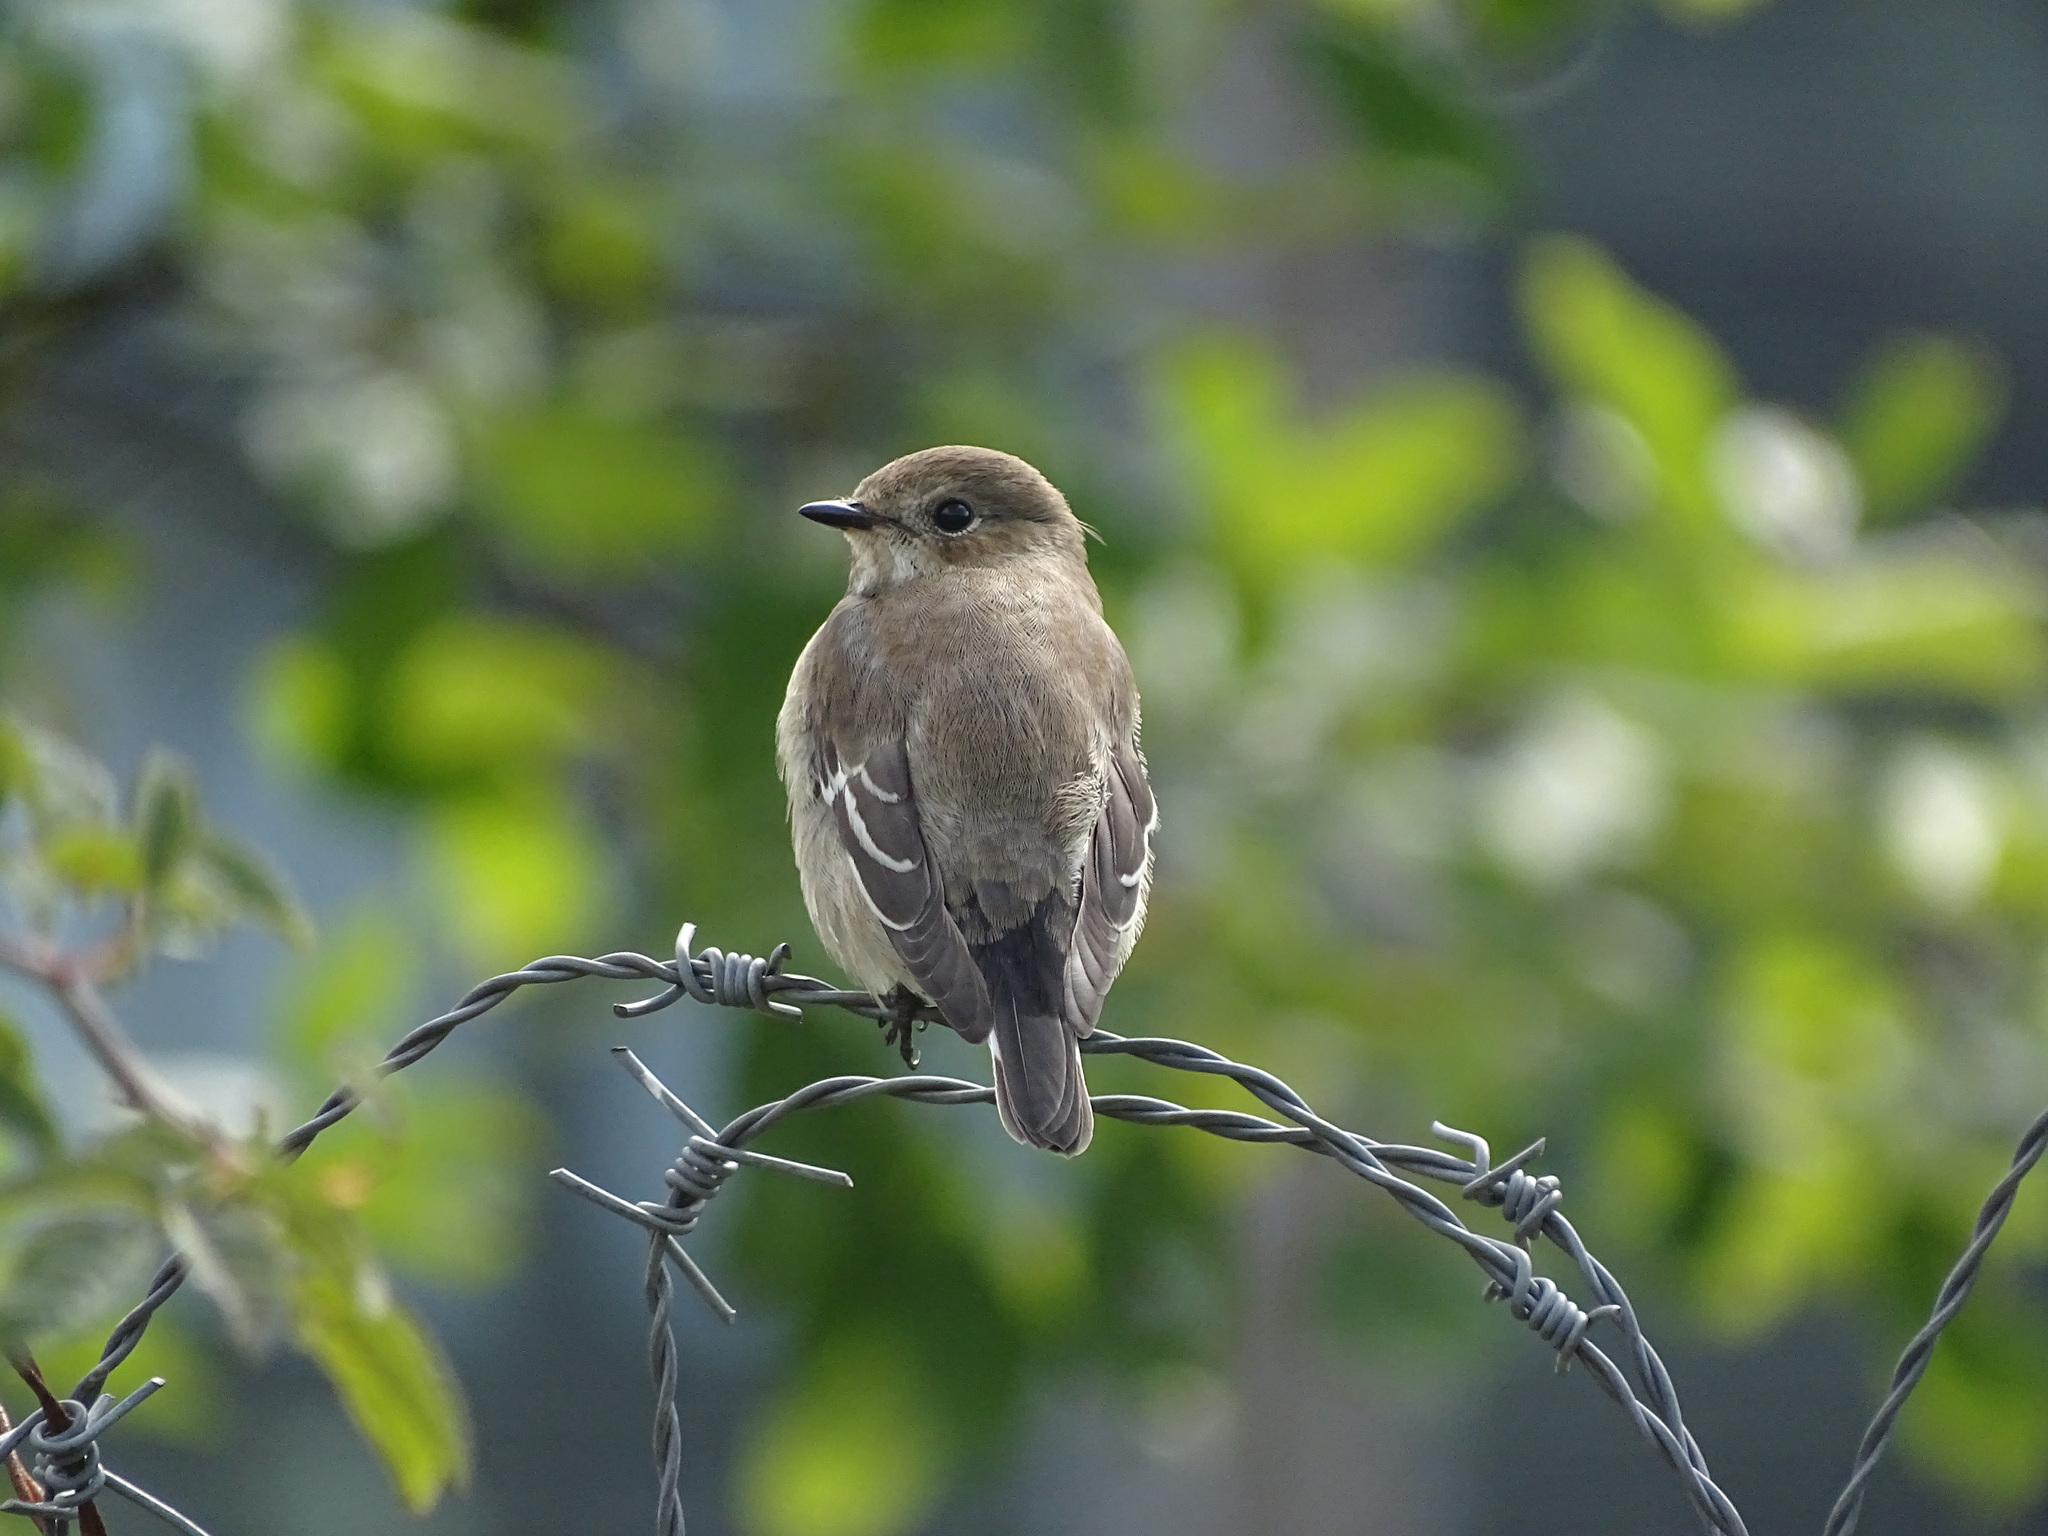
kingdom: Animalia
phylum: Chordata
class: Aves
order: Passeriformes
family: Muscicapidae
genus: Ficedula
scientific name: Ficedula hypoleuca
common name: European pied flycatcher
